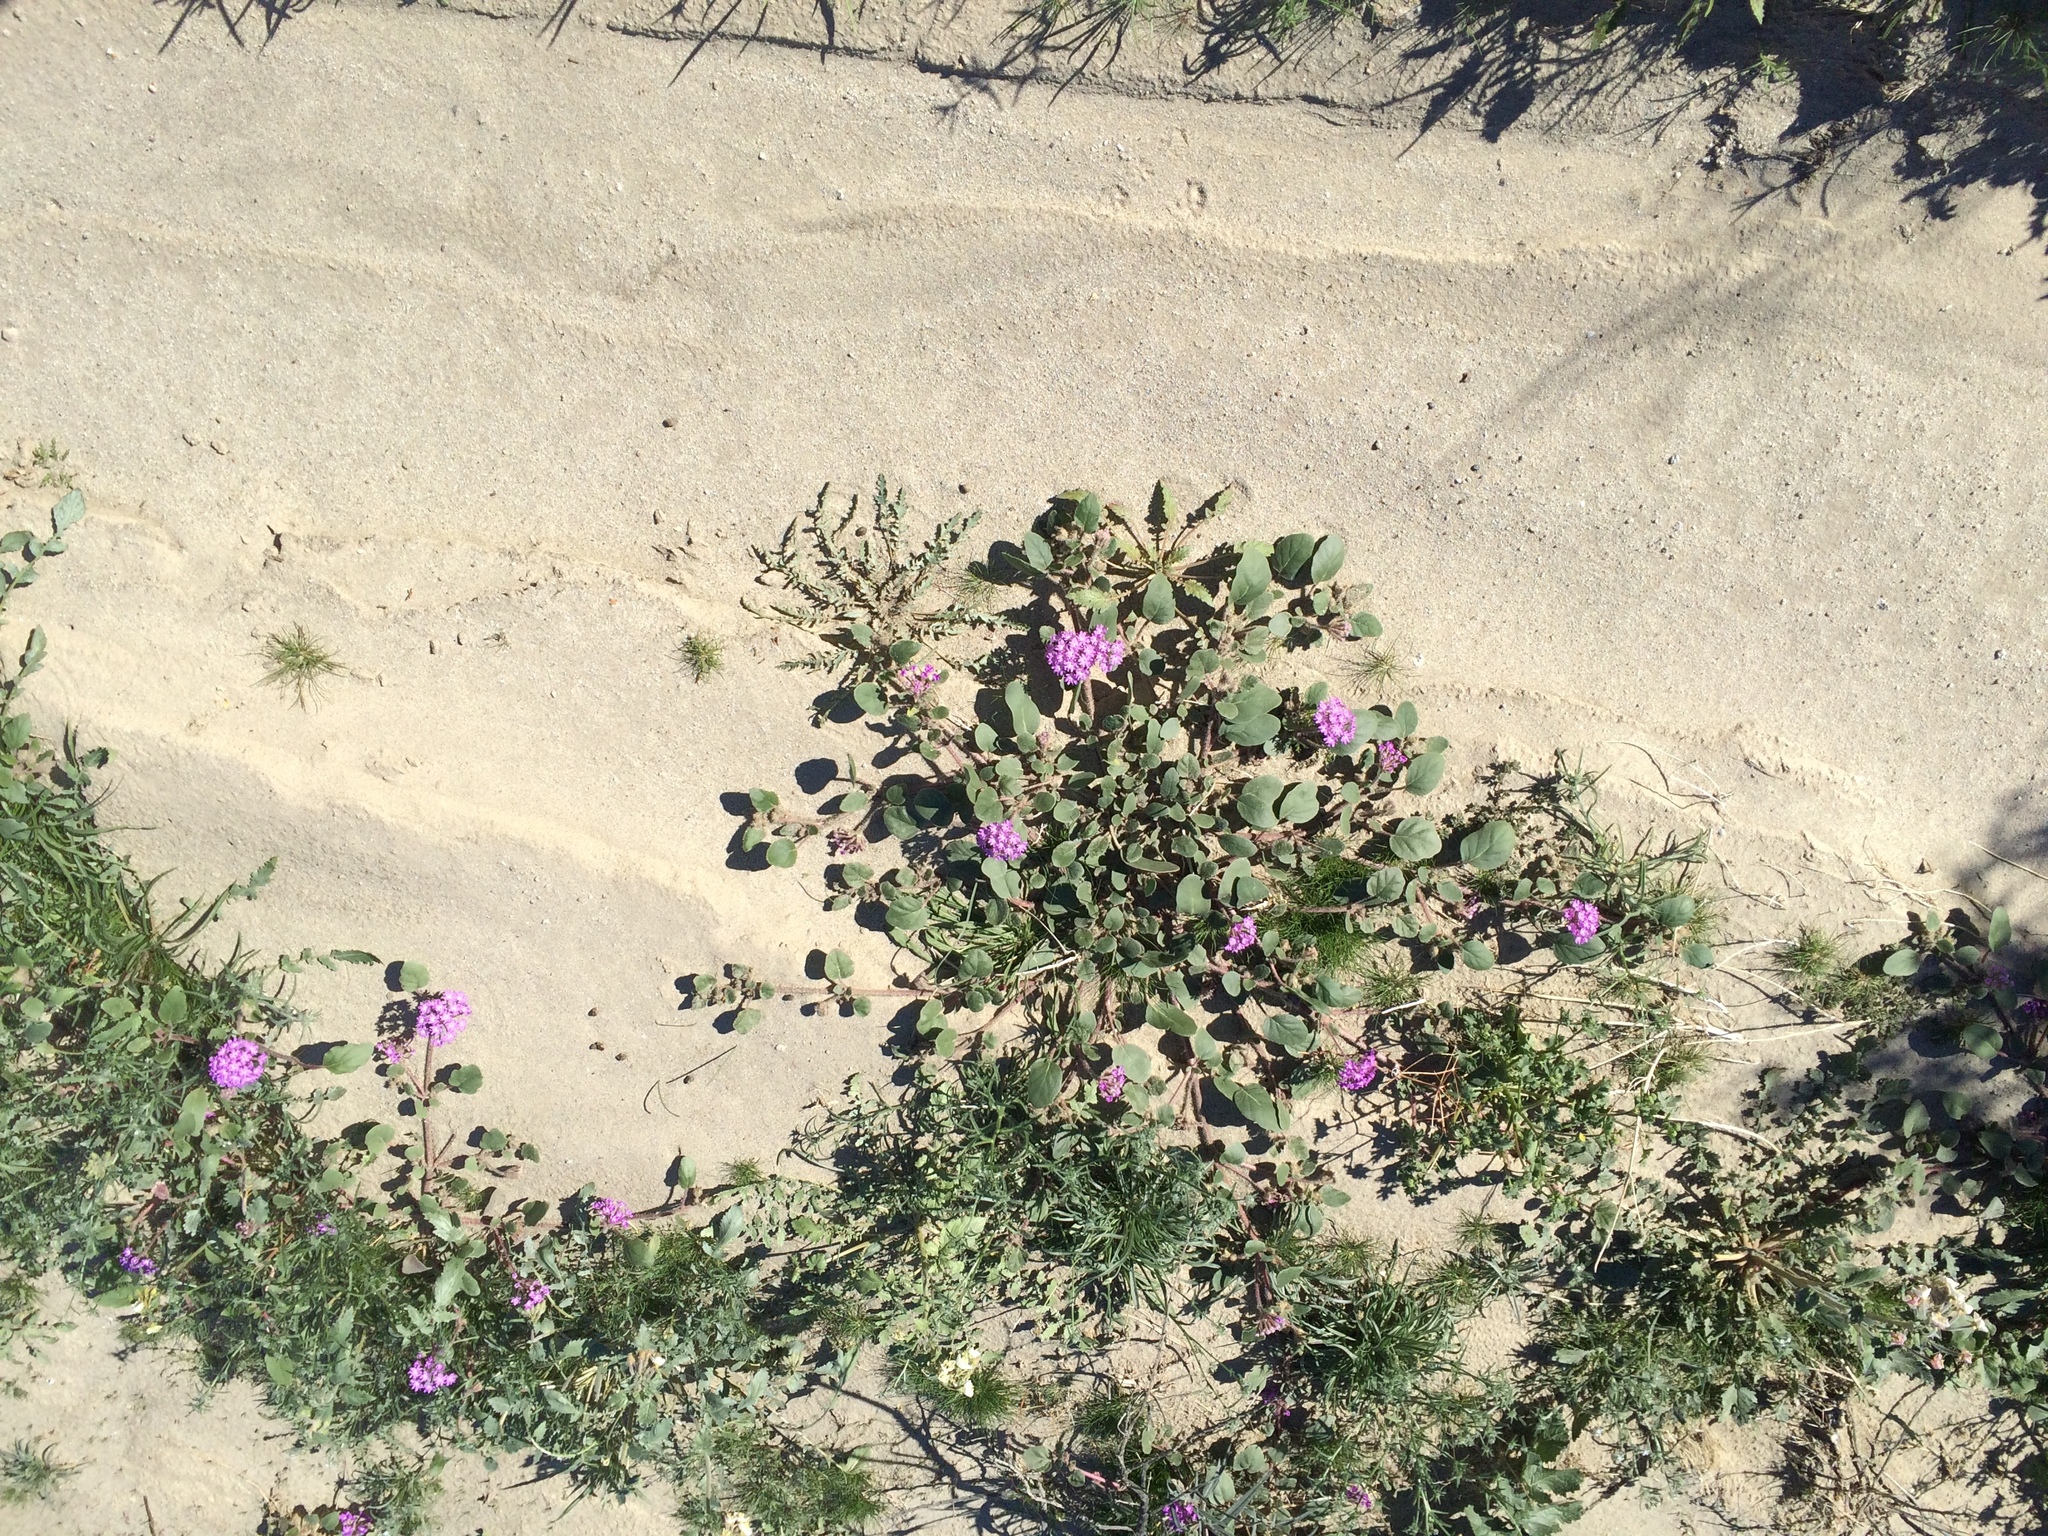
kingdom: Plantae
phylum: Tracheophyta
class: Magnoliopsida
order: Caryophyllales
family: Nyctaginaceae
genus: Abronia
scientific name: Abronia villosa
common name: Desert sand-verbena
